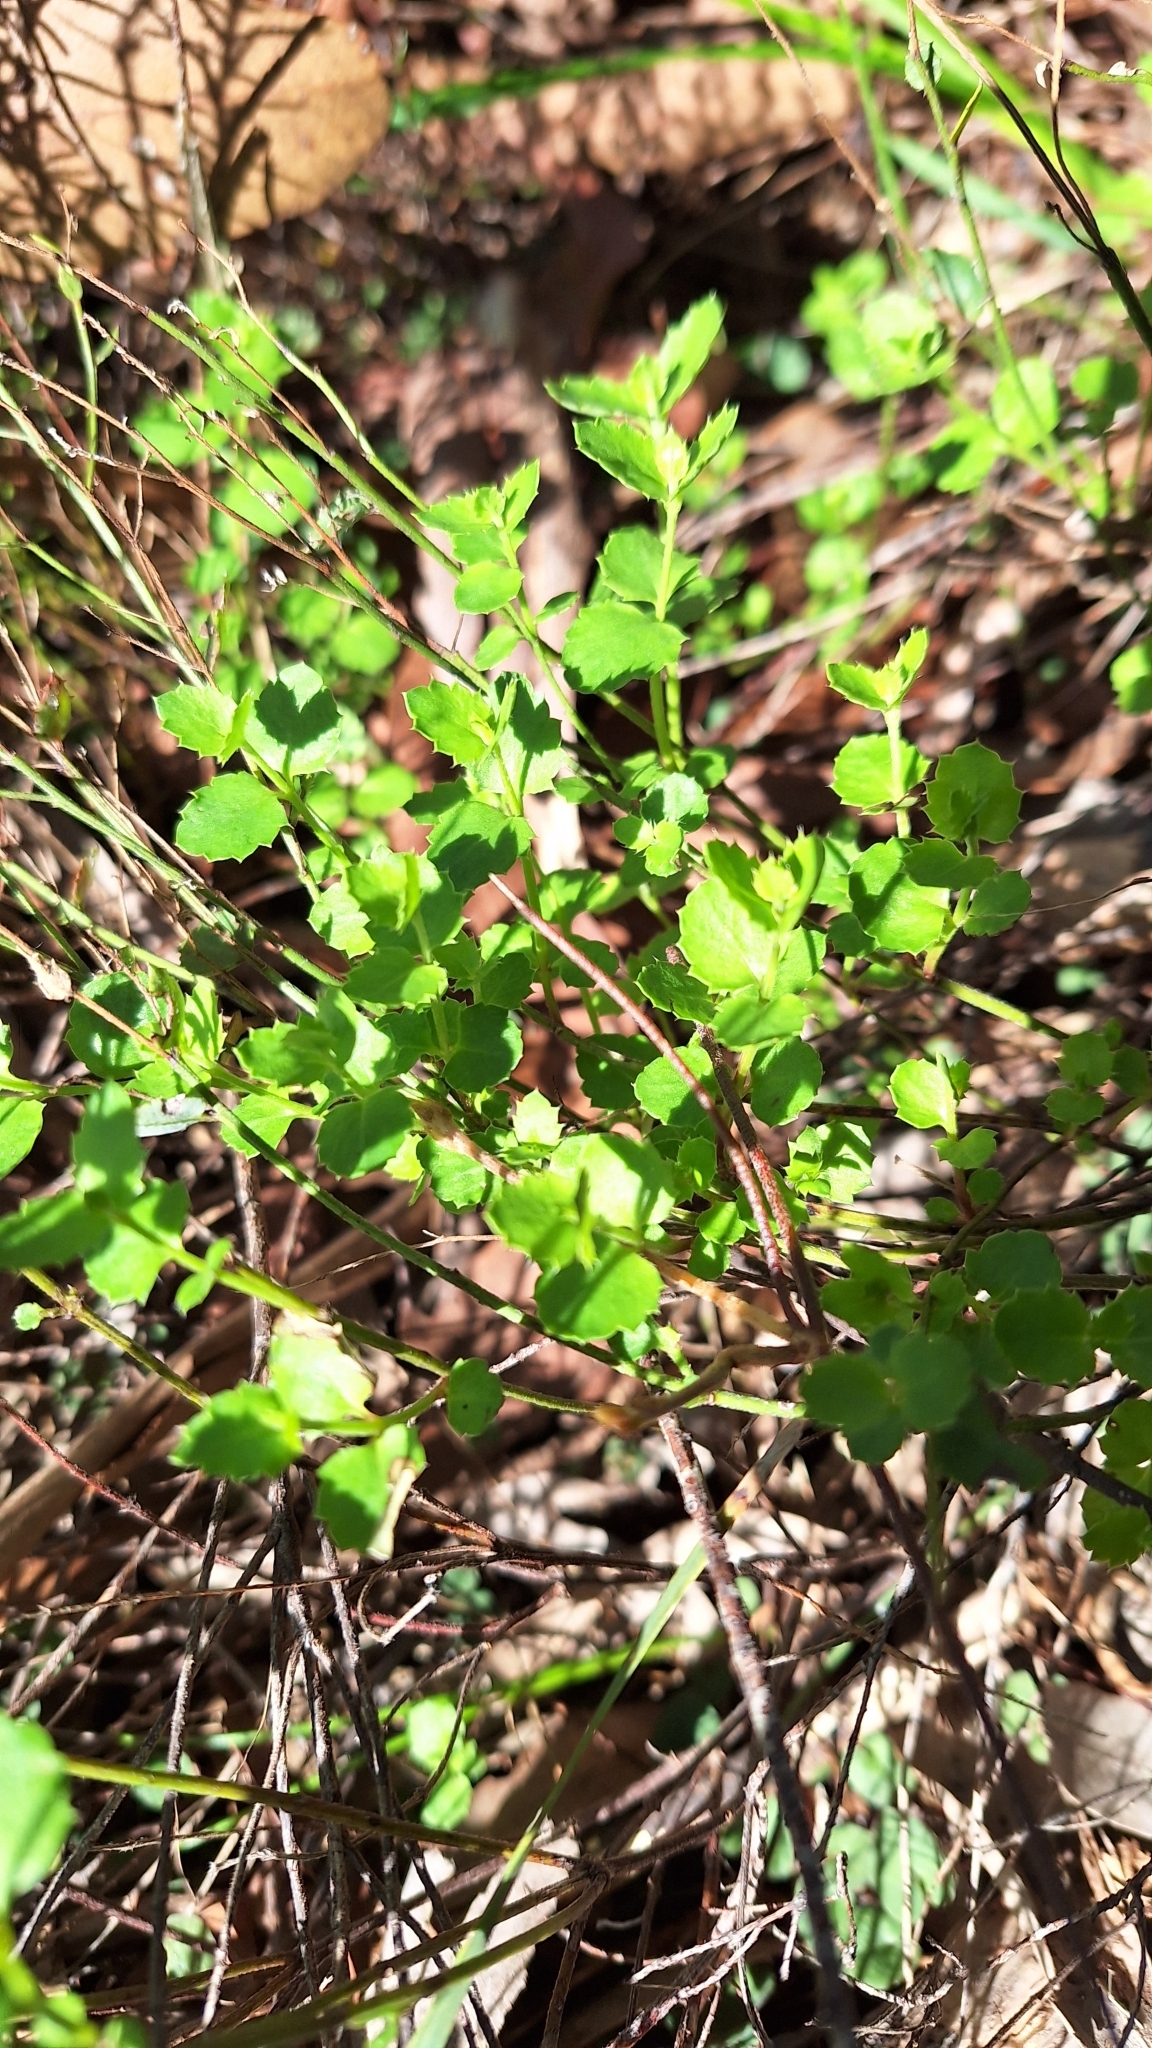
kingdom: Plantae
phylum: Tracheophyta
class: Magnoliopsida
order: Saxifragales
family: Haloragaceae
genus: Gonocarpus
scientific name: Gonocarpus mezianus
